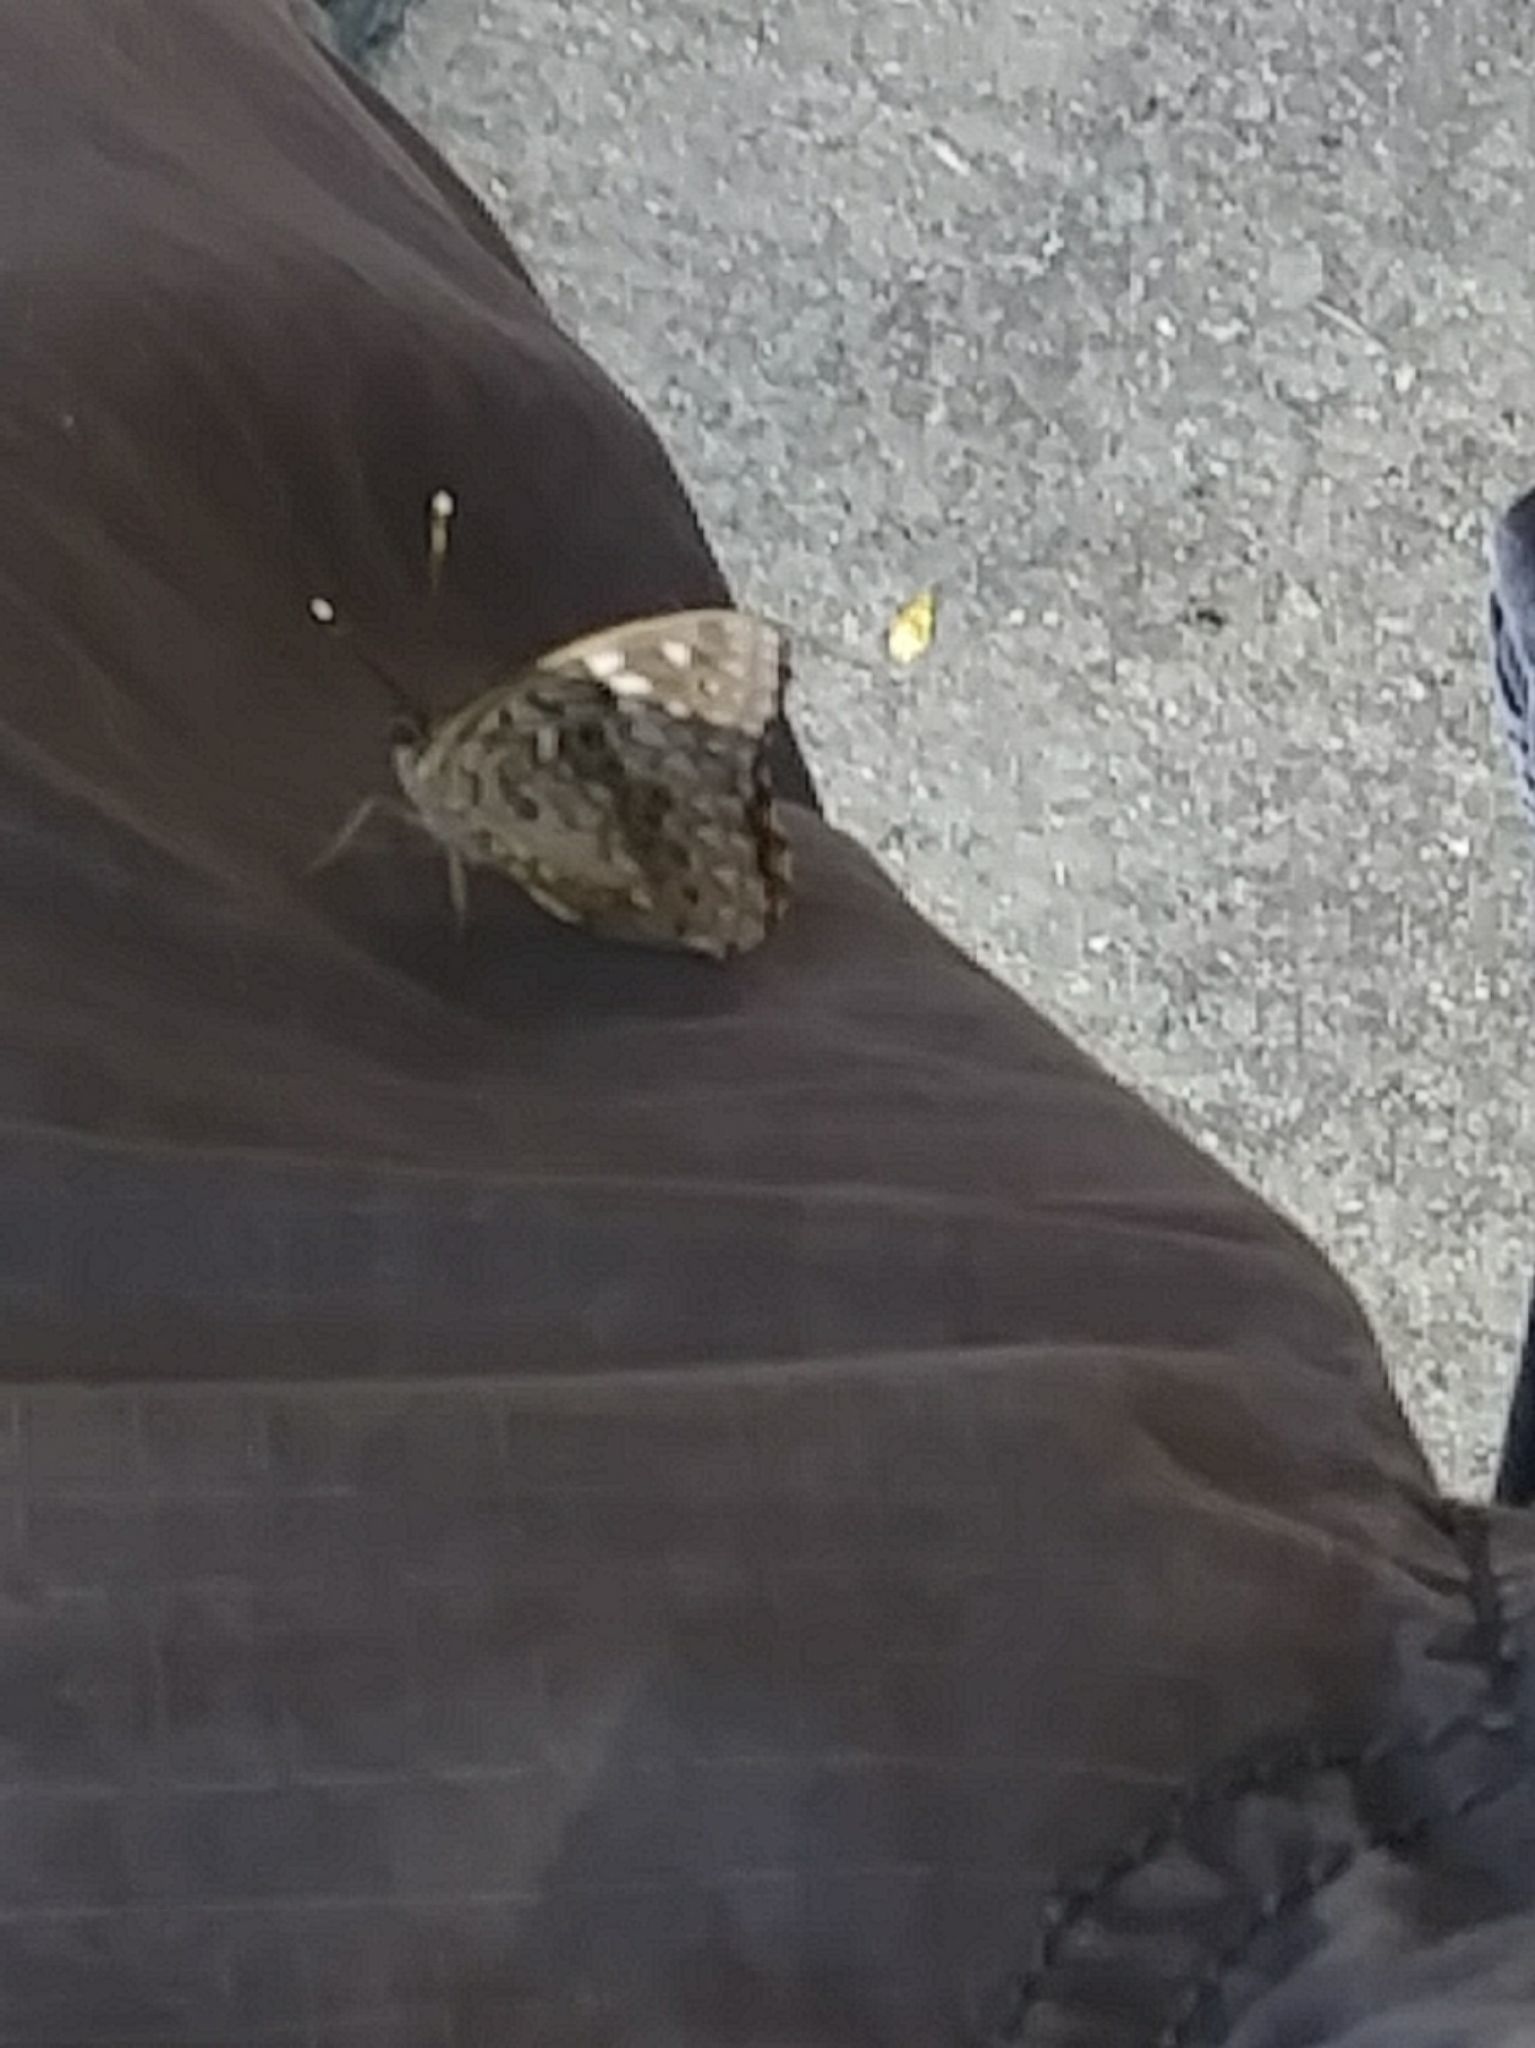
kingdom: Animalia
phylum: Arthropoda
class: Insecta
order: Lepidoptera
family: Nymphalidae
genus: Asterocampa
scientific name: Asterocampa celtis
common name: Hackberry emperor
